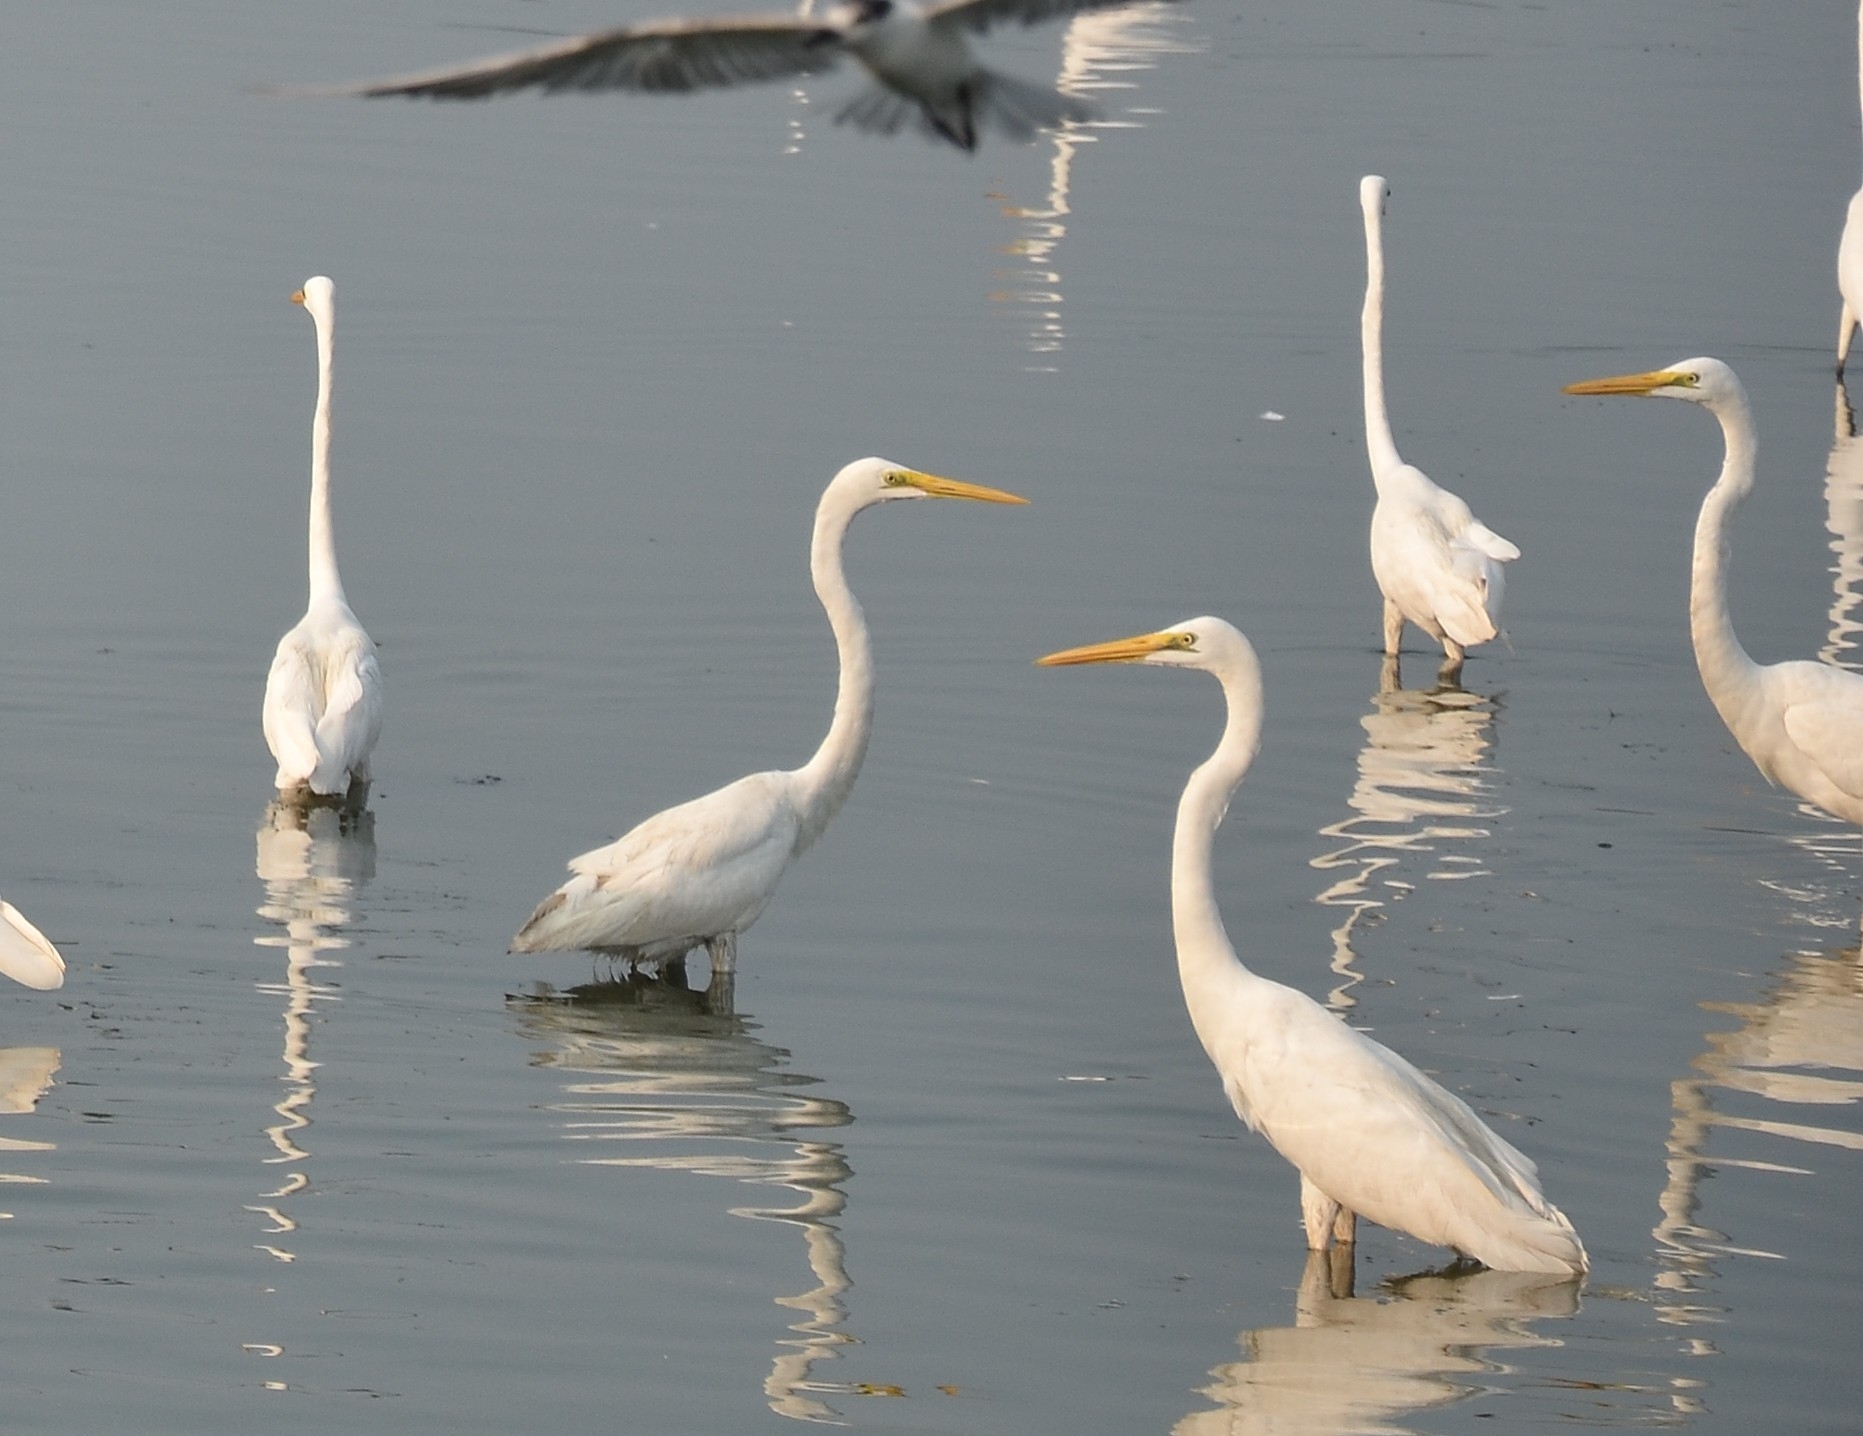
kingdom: Animalia
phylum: Chordata
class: Aves
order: Pelecaniformes
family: Ardeidae
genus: Ardea
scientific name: Ardea alba
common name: Great egret
